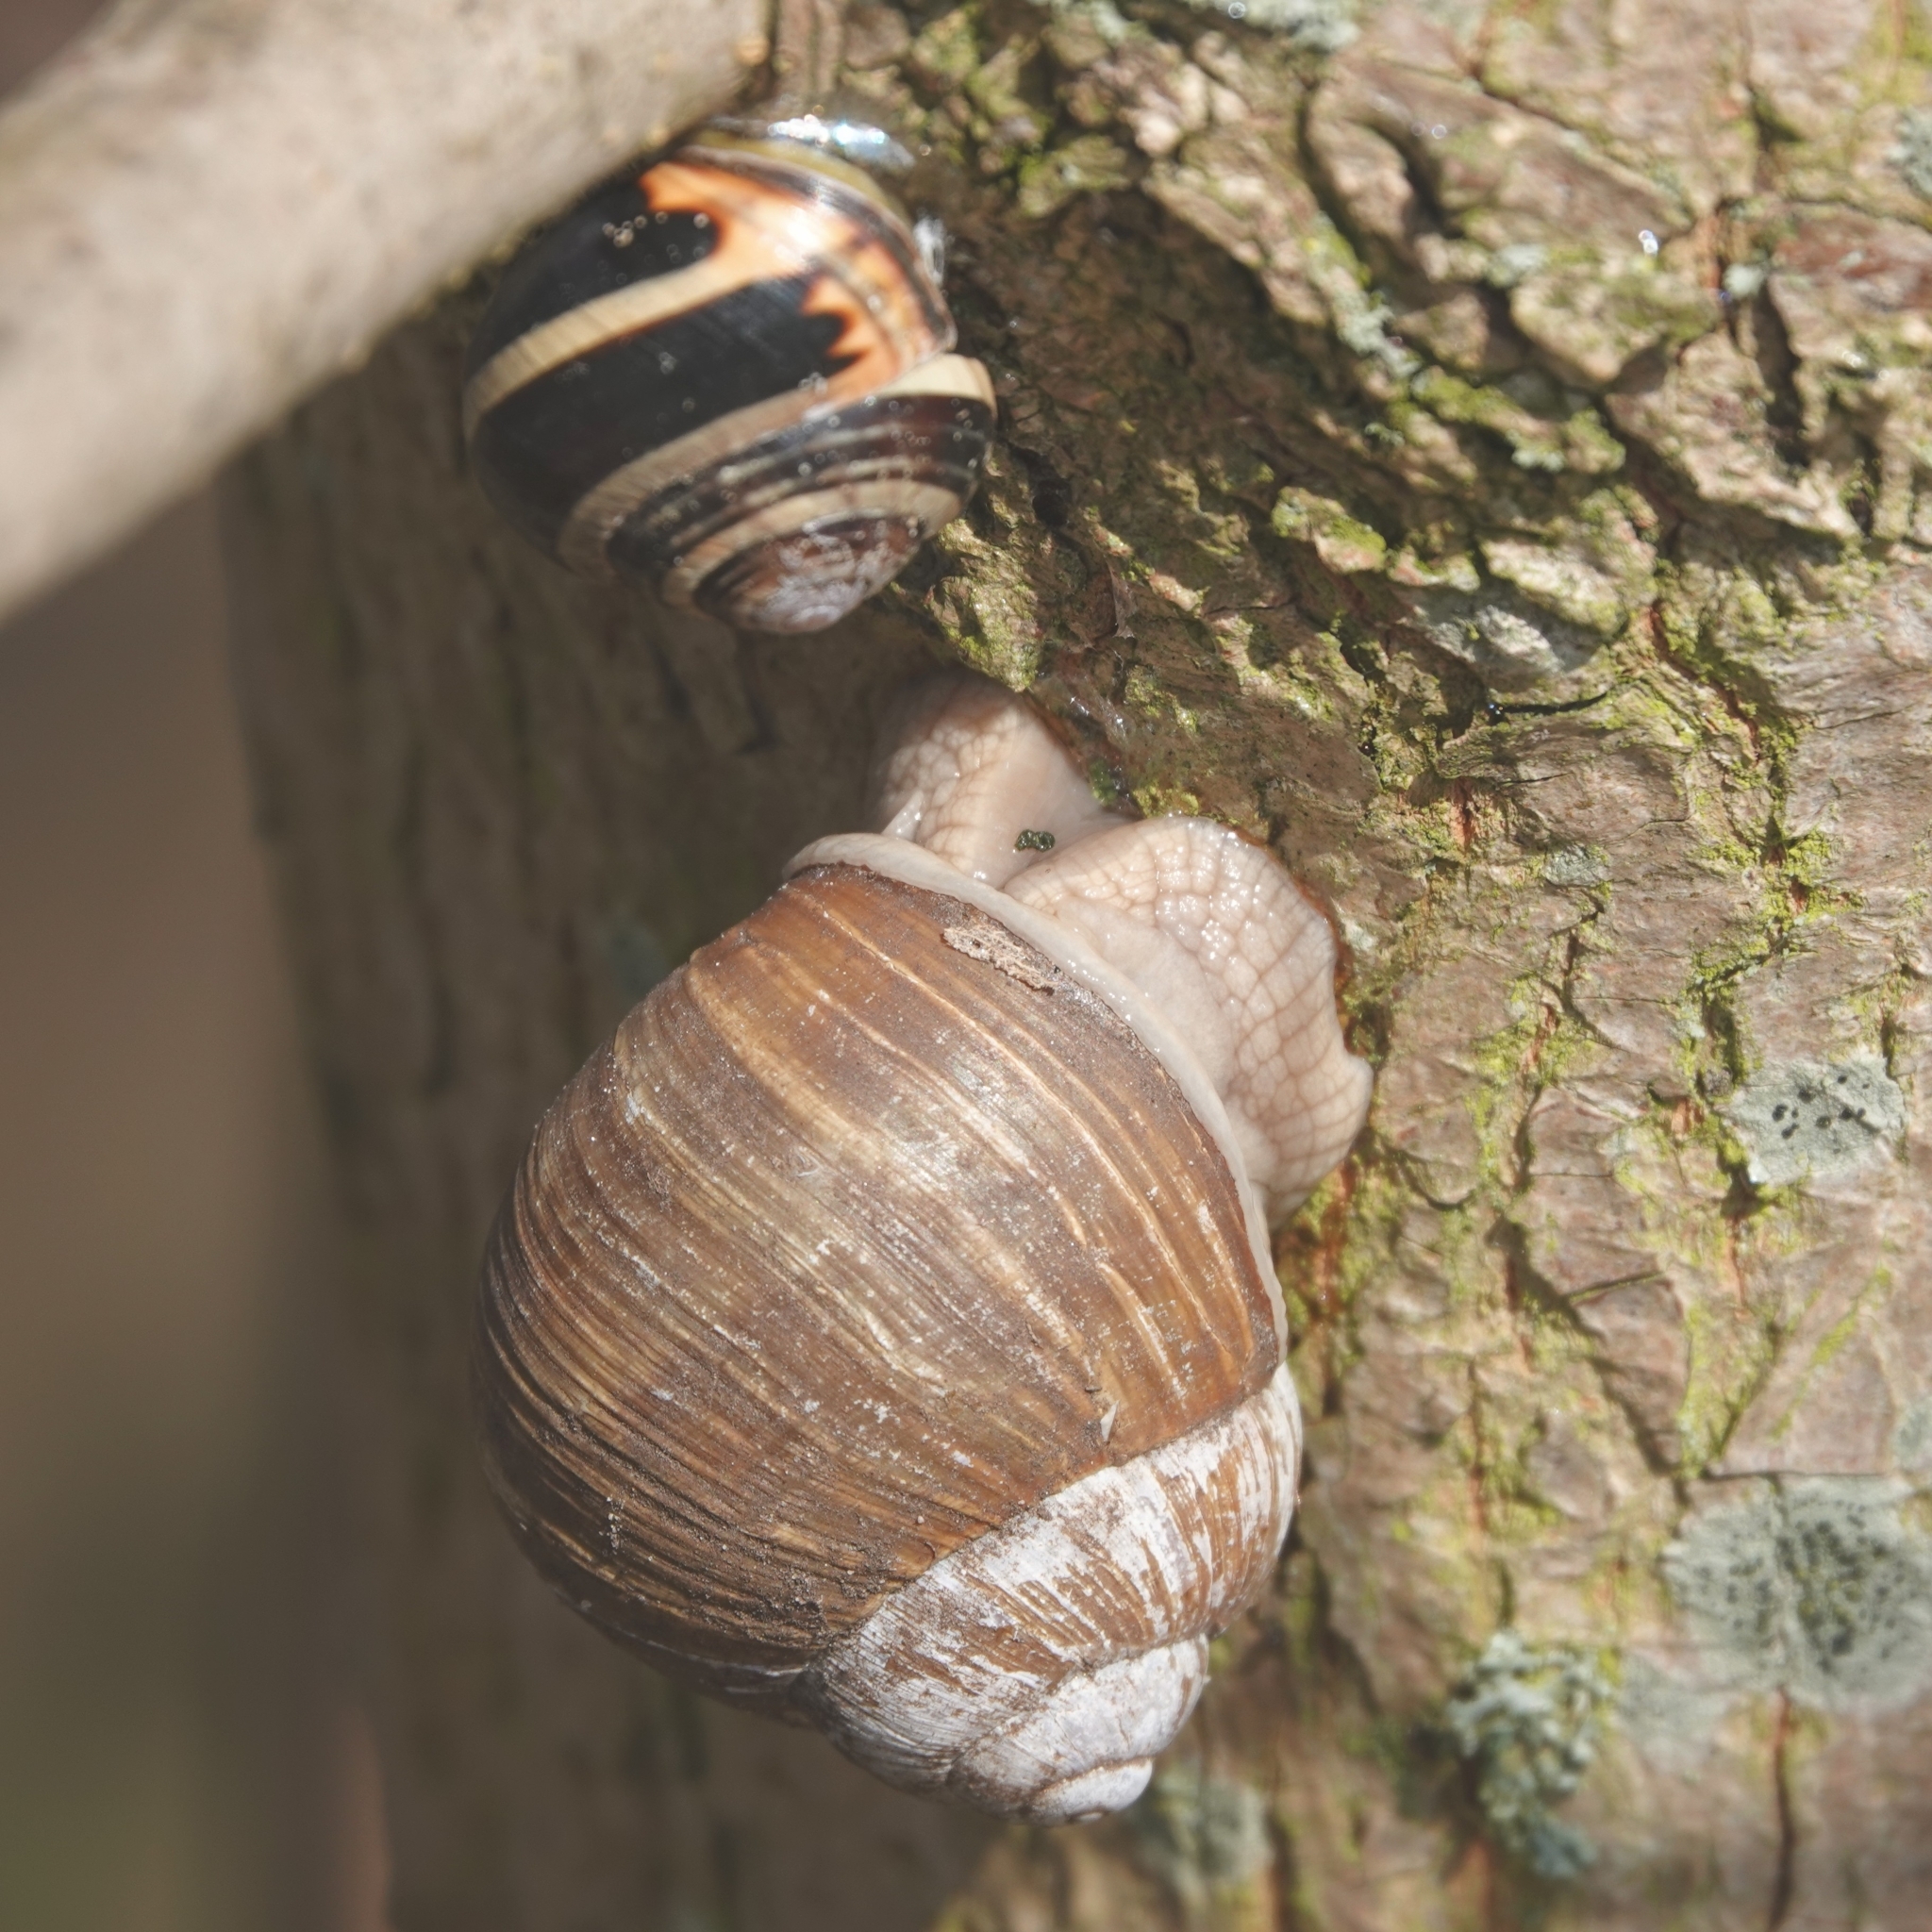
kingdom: Animalia
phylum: Mollusca
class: Gastropoda
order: Stylommatophora
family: Helicidae
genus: Helix
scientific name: Helix pomatia
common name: Roman snail
